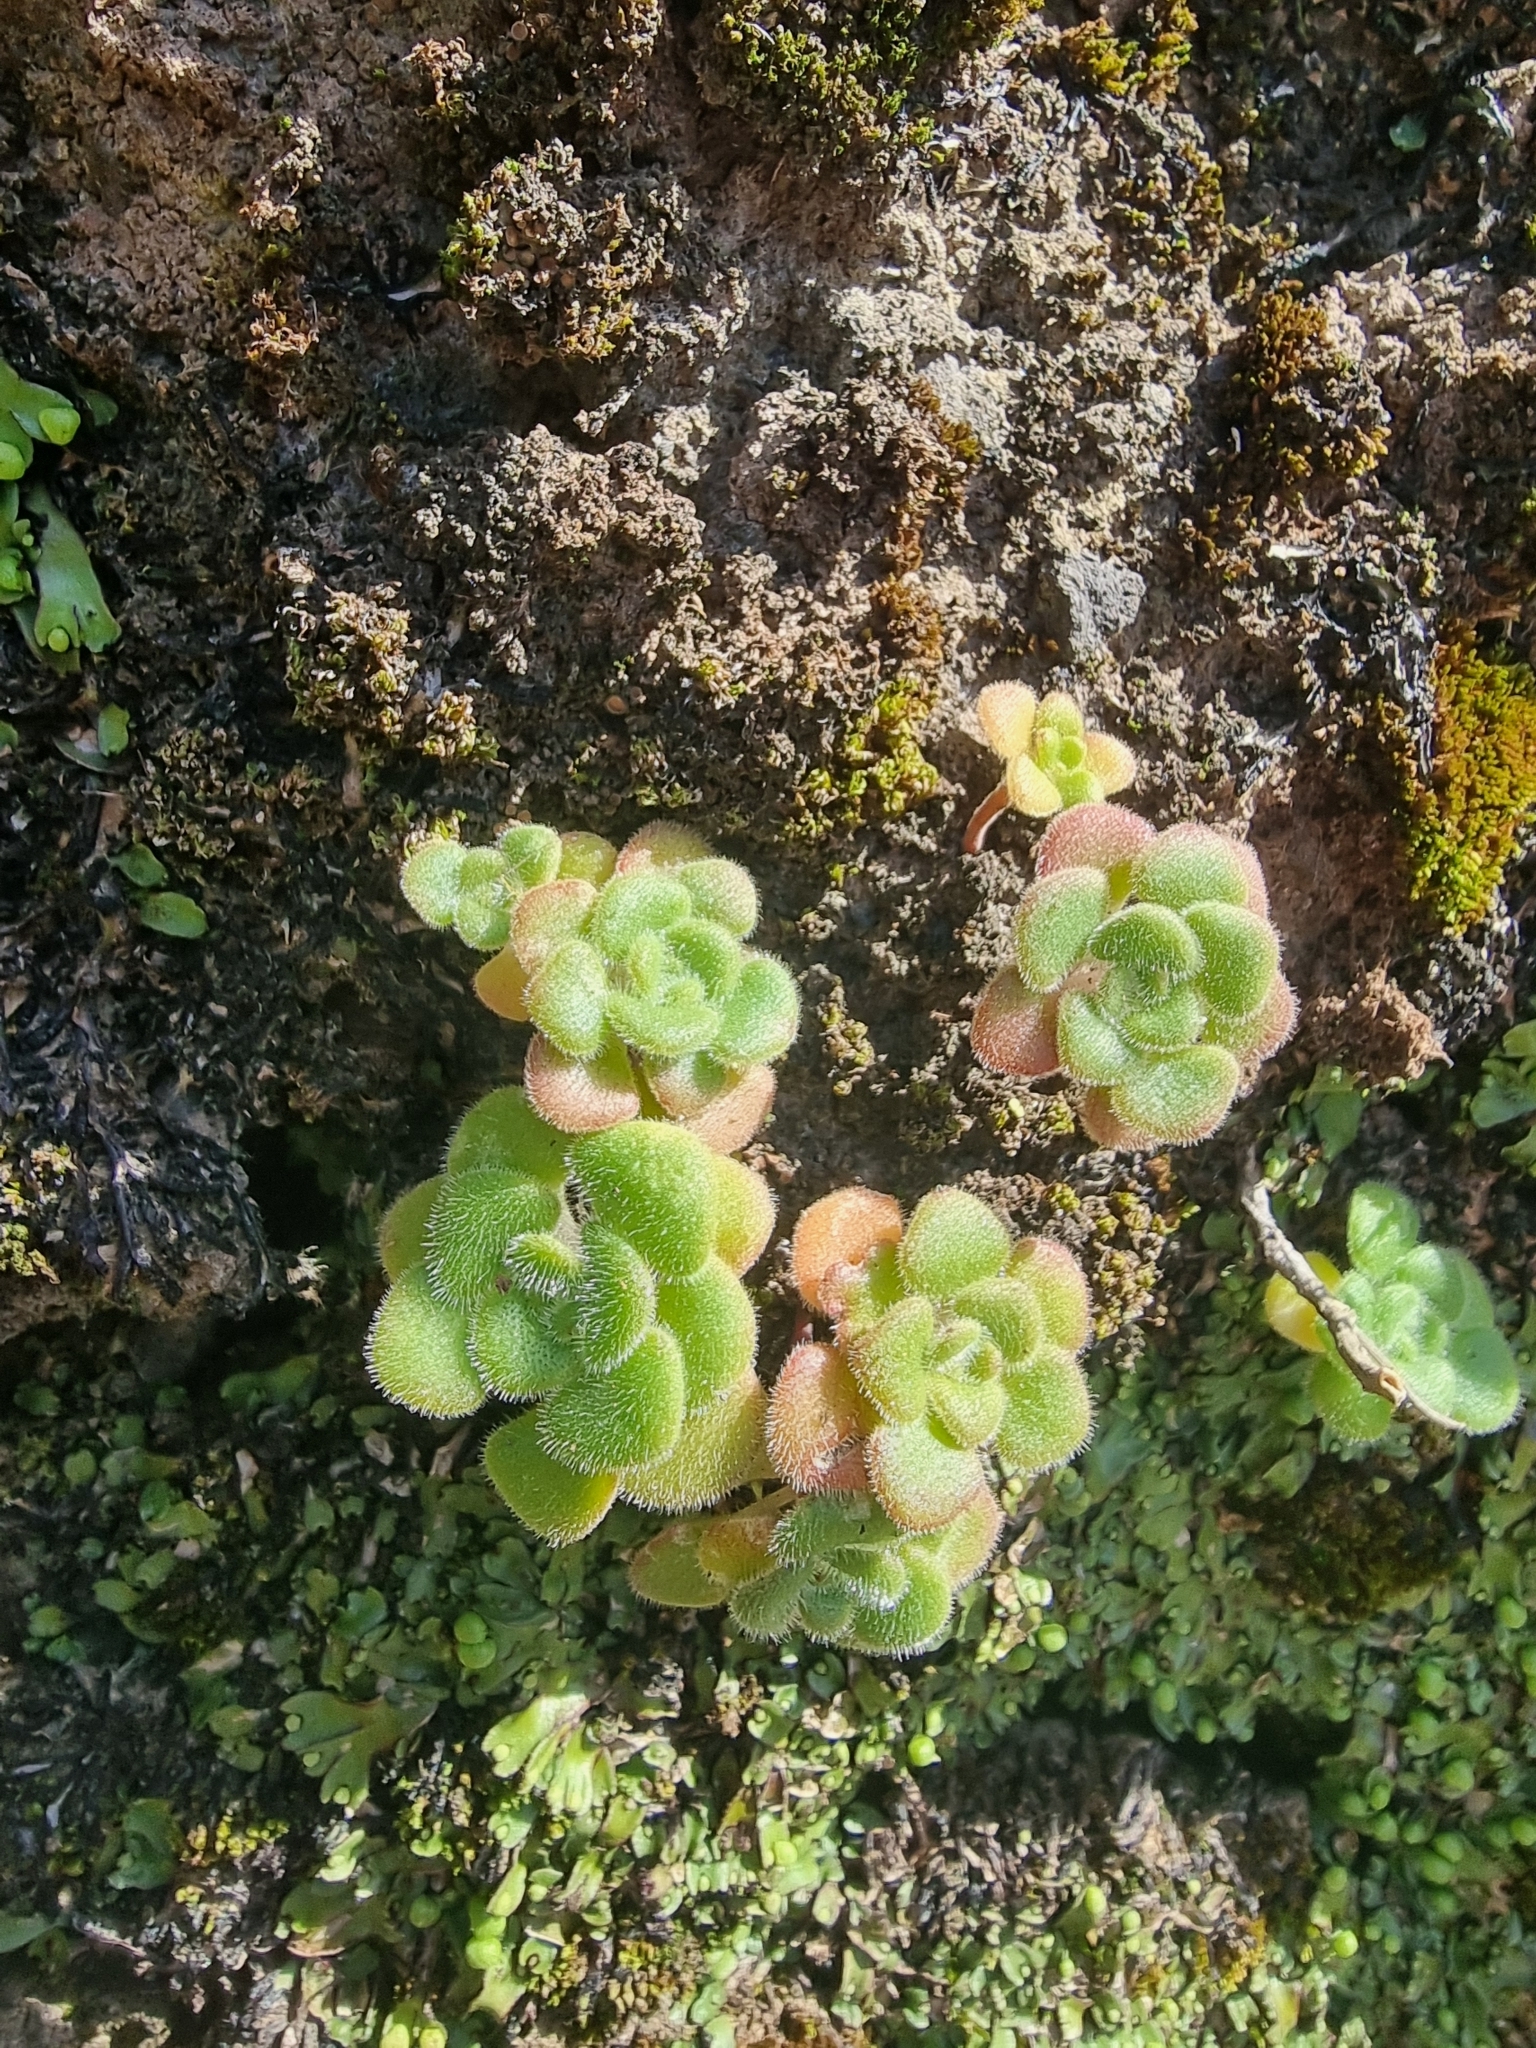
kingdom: Plantae
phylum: Tracheophyta
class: Magnoliopsida
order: Saxifragales
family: Crassulaceae
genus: Aichryson
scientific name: Aichryson villosum
